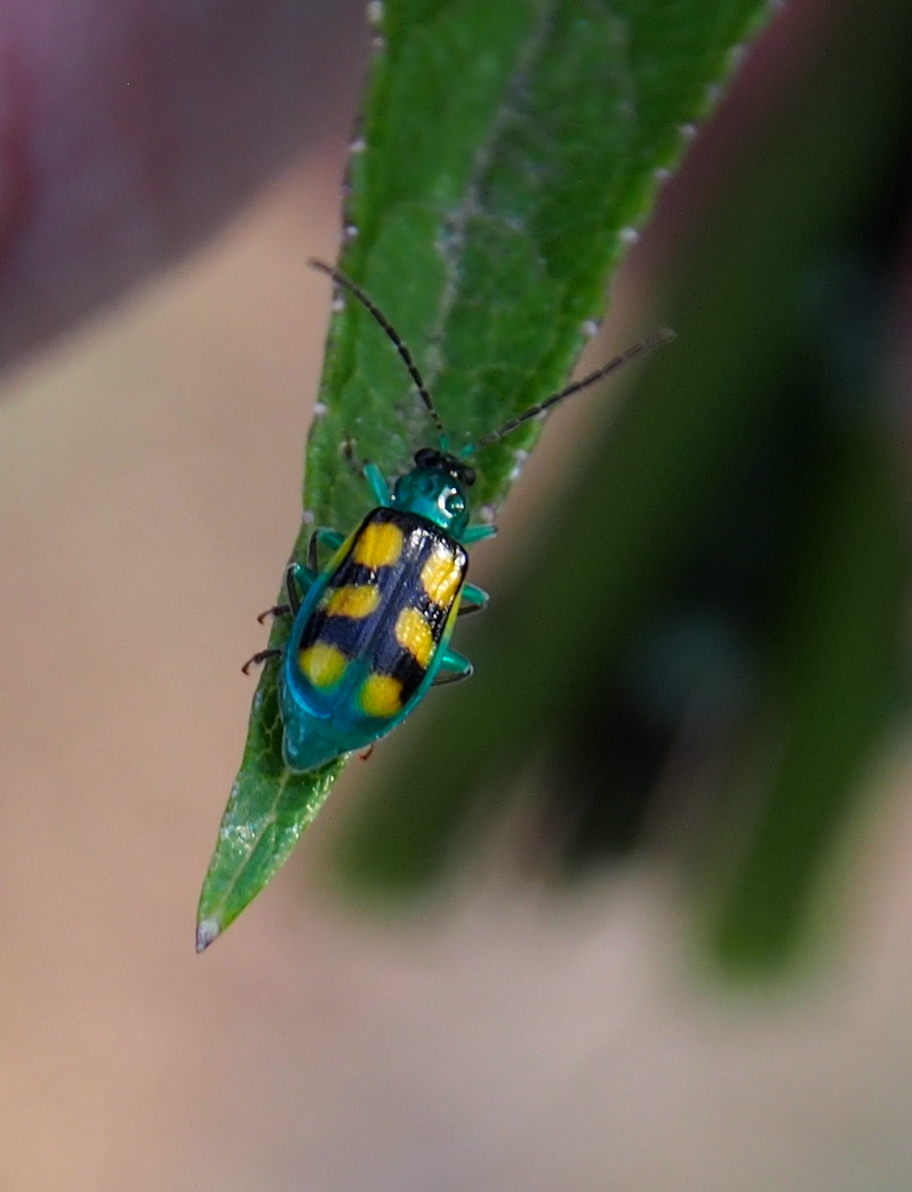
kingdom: Animalia
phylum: Arthropoda
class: Insecta
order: Coleoptera
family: Chrysomelidae
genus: Diabrotica
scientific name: Diabrotica
